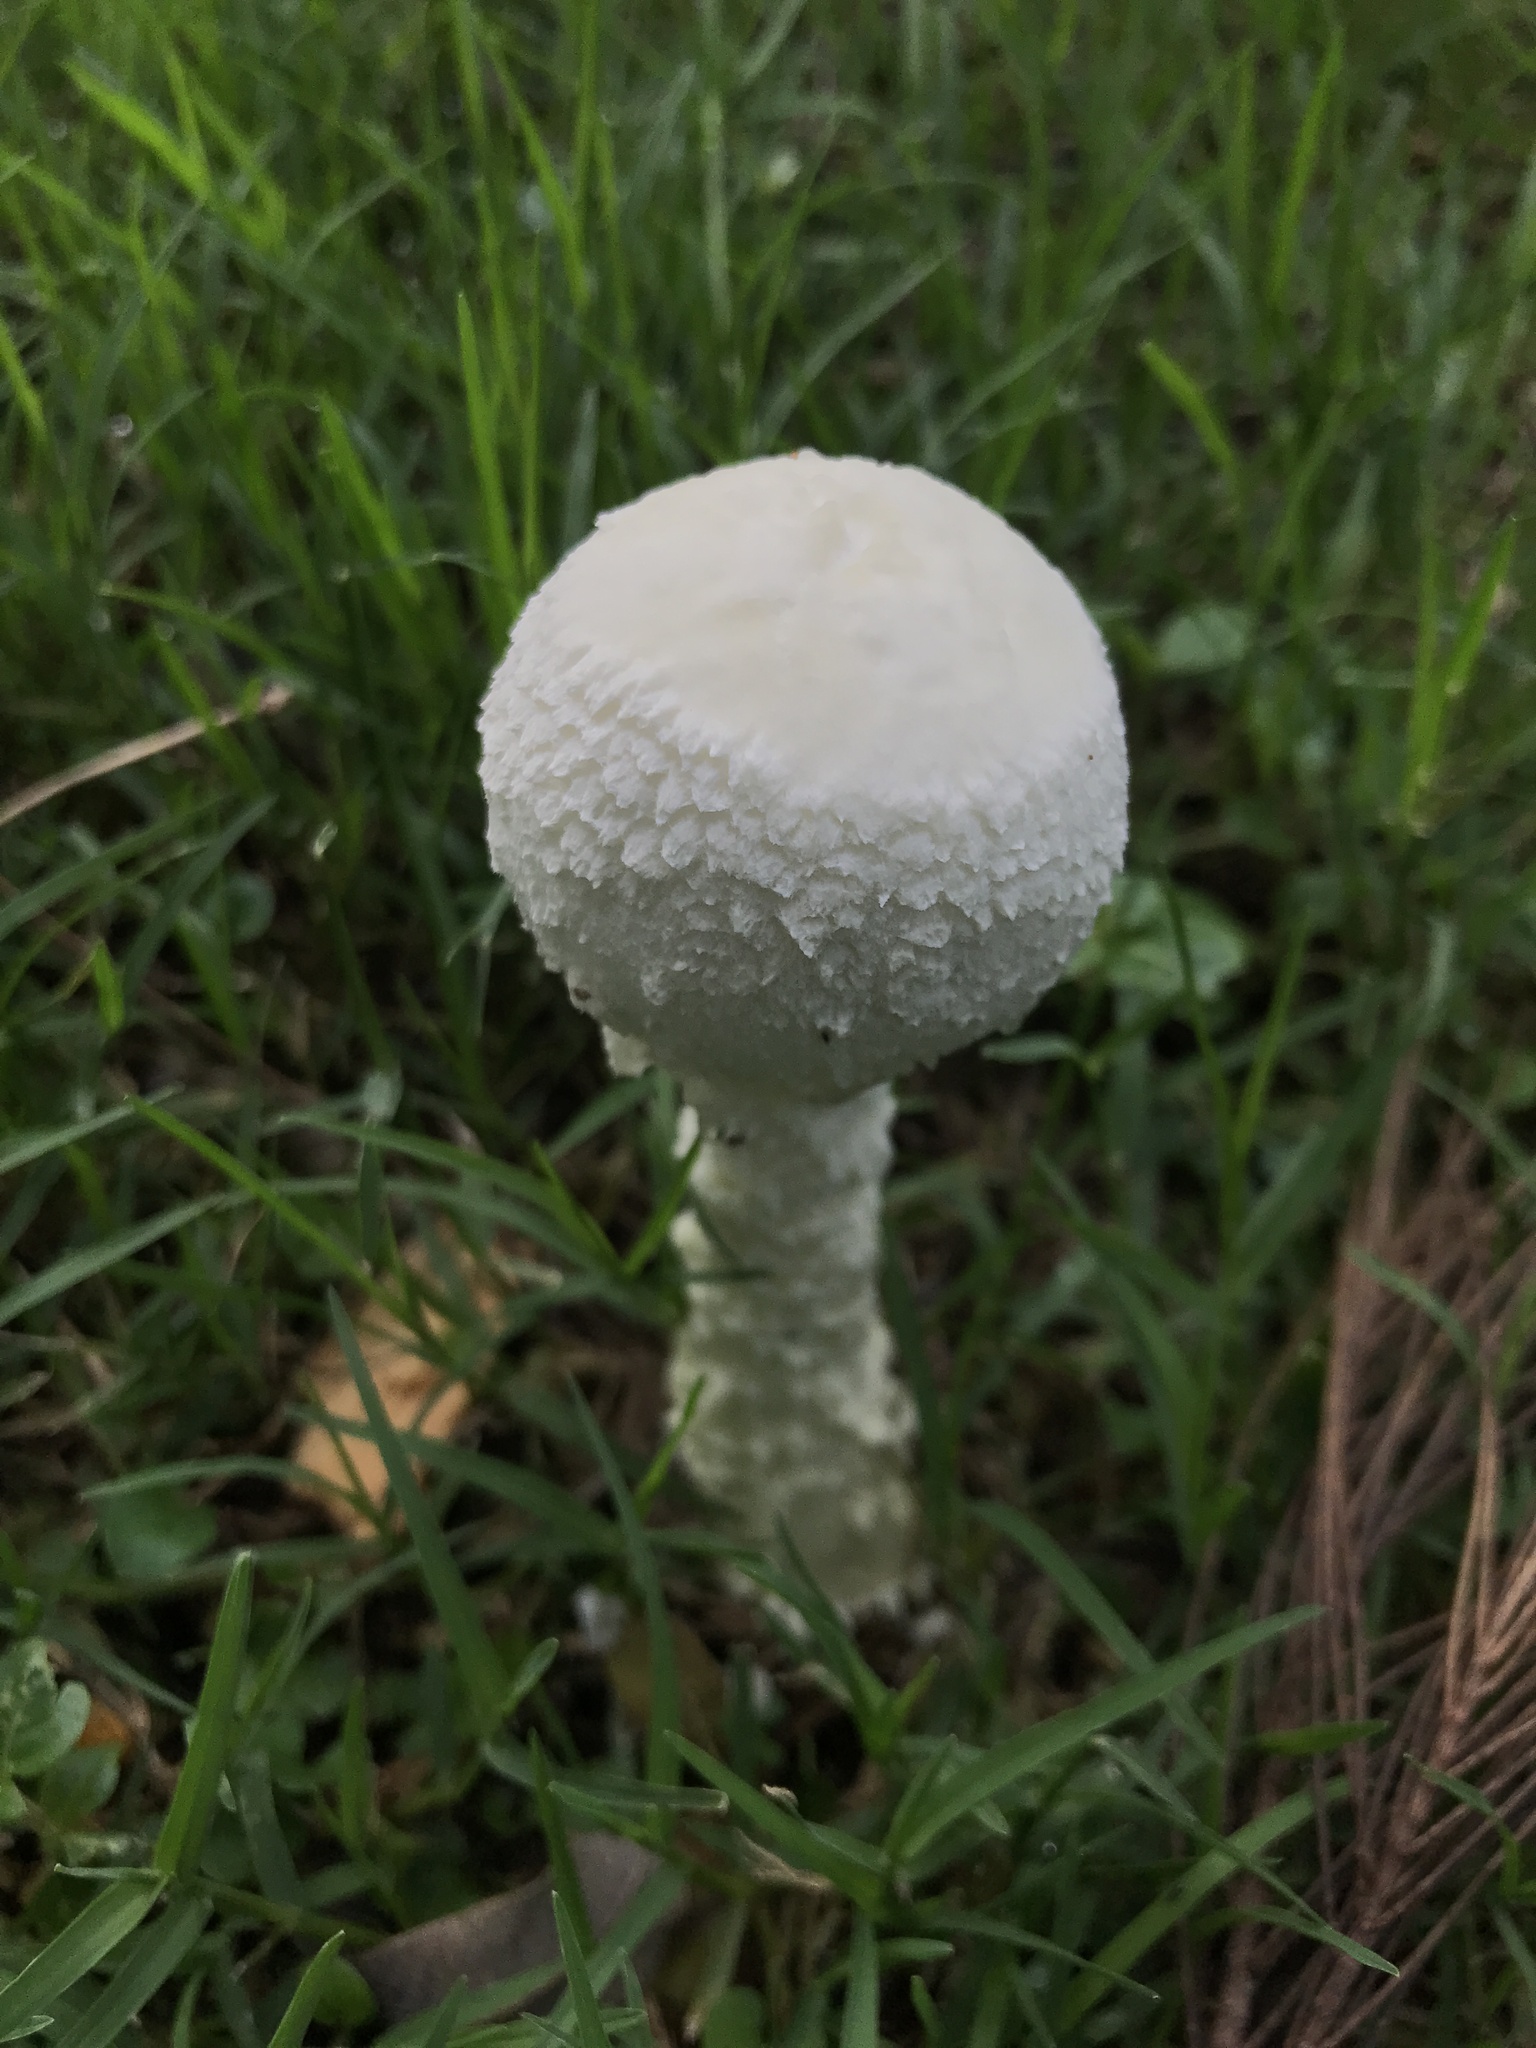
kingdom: Fungi
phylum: Basidiomycota
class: Agaricomycetes
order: Agaricales
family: Amanitaceae
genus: Aspidella
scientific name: Aspidella foetens
